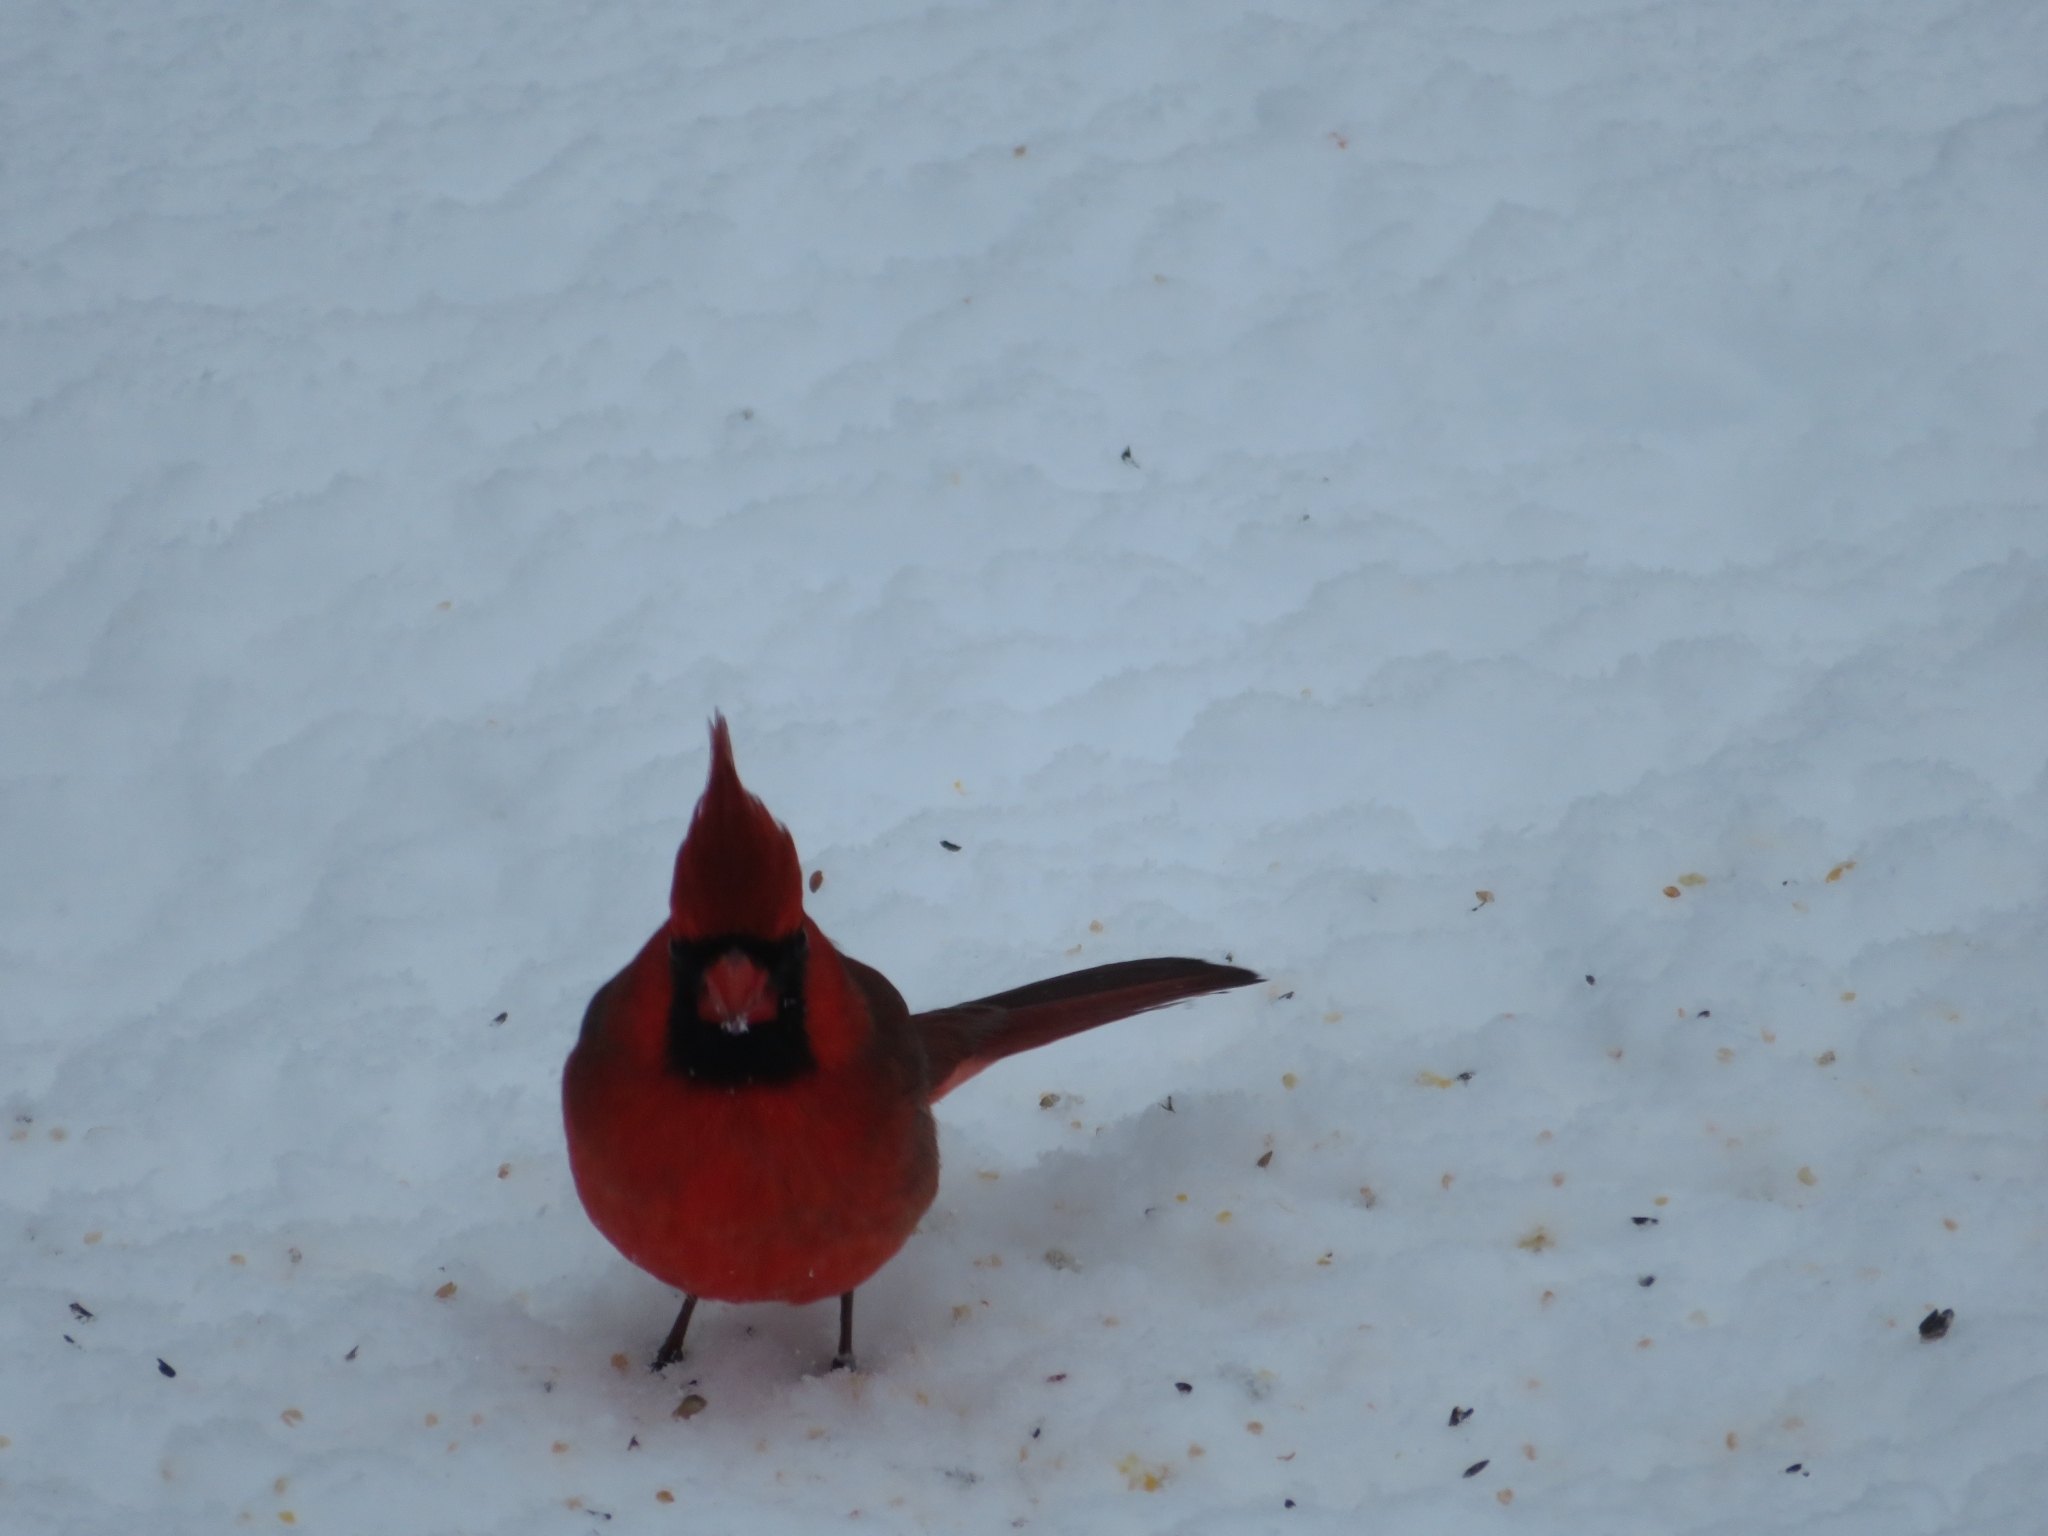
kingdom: Animalia
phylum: Chordata
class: Aves
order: Passeriformes
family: Cardinalidae
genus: Cardinalis
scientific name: Cardinalis cardinalis
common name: Northern cardinal
